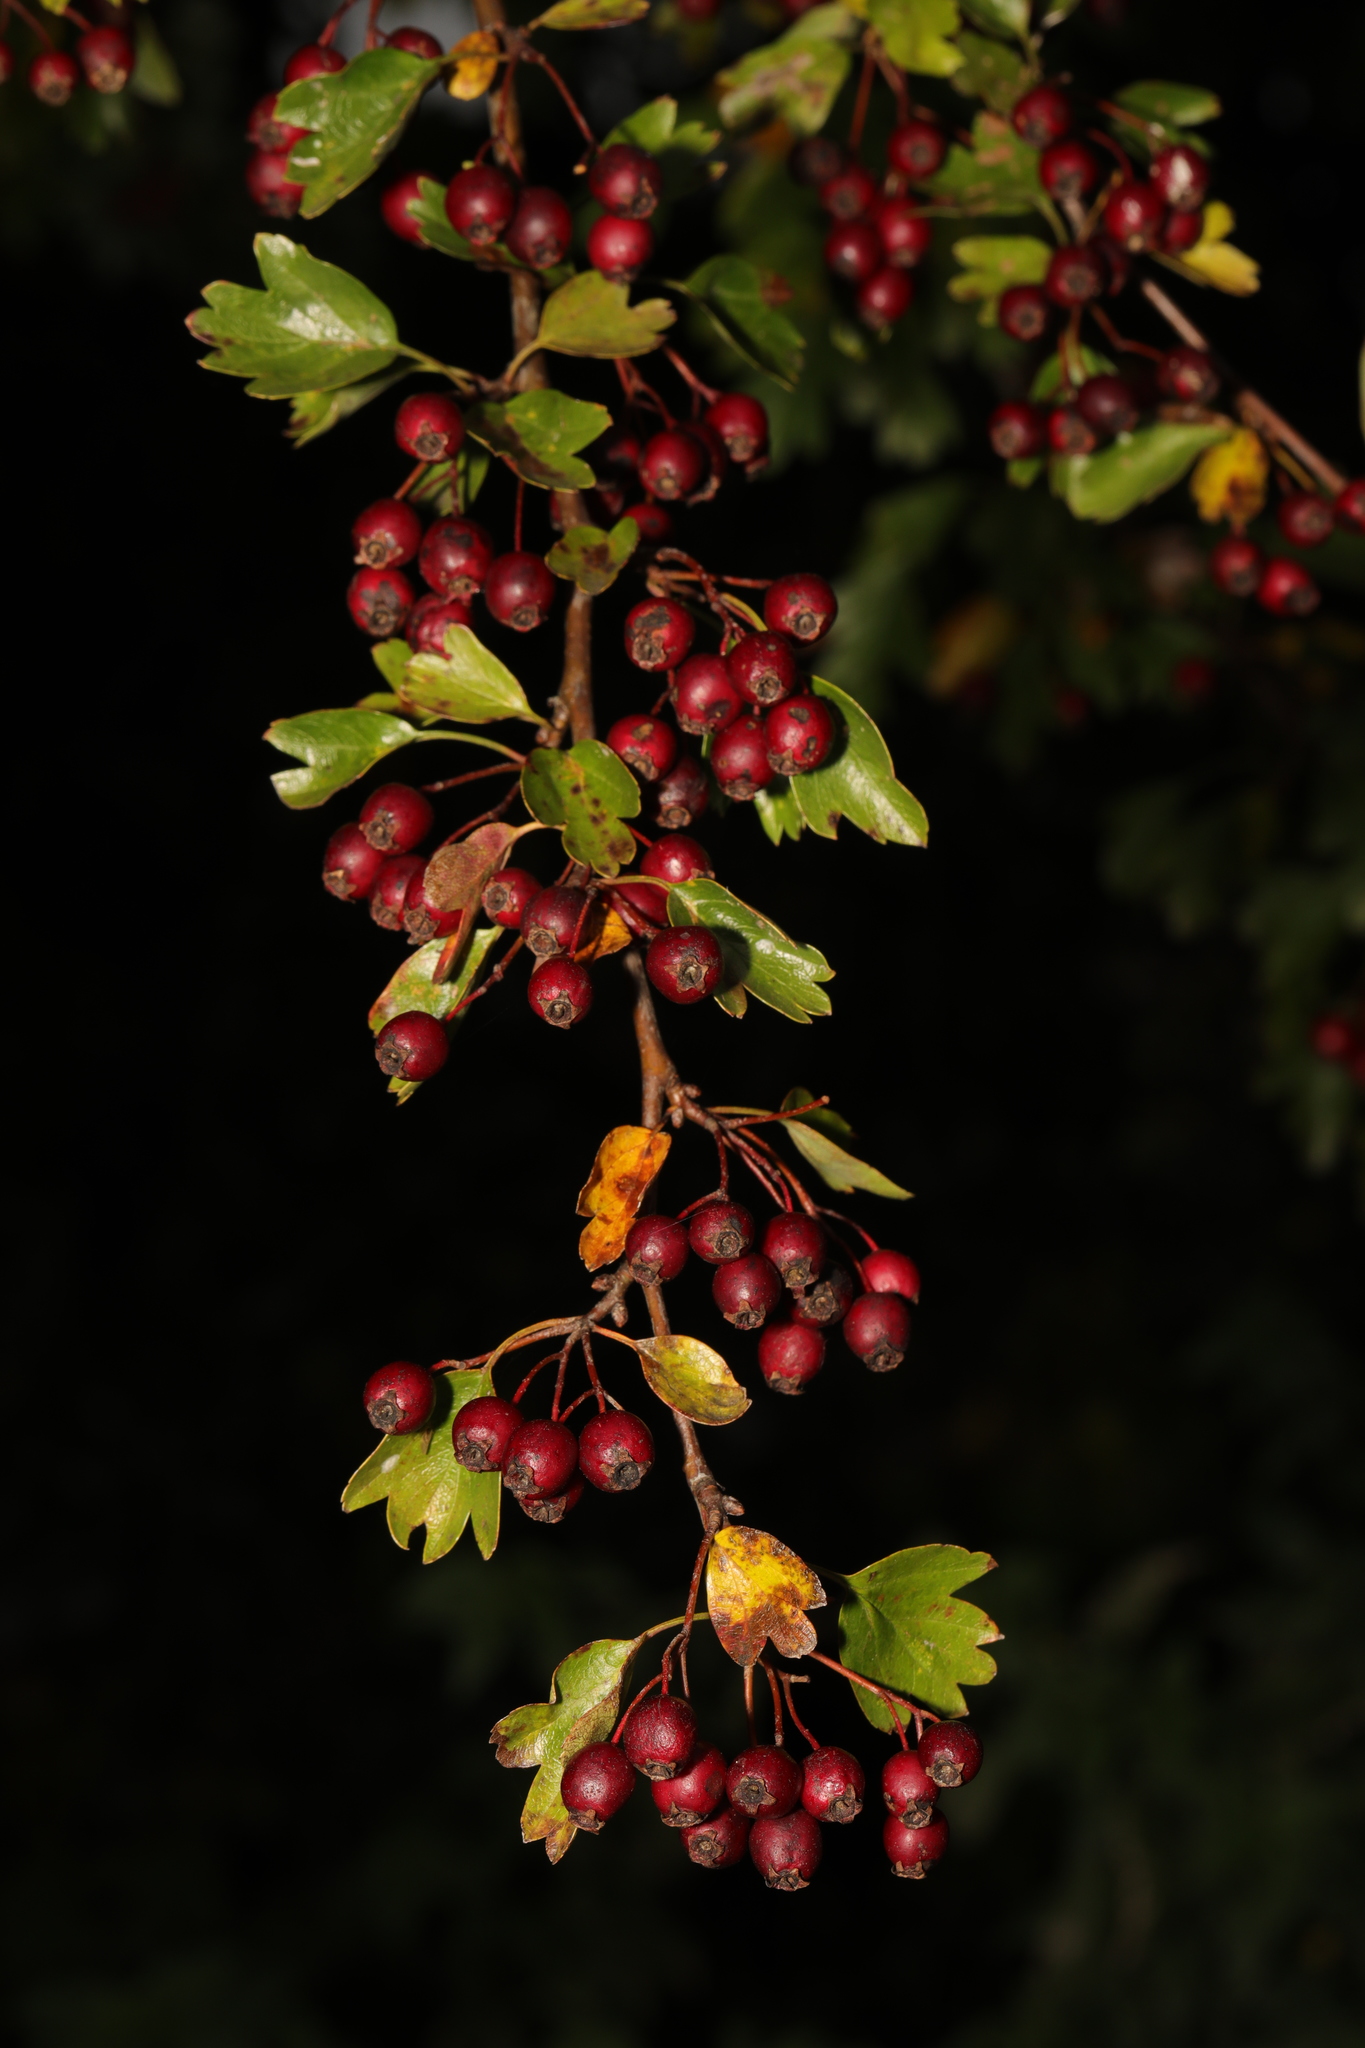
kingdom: Plantae
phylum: Tracheophyta
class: Magnoliopsida
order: Rosales
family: Rosaceae
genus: Crataegus
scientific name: Crataegus monogyna
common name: Hawthorn
